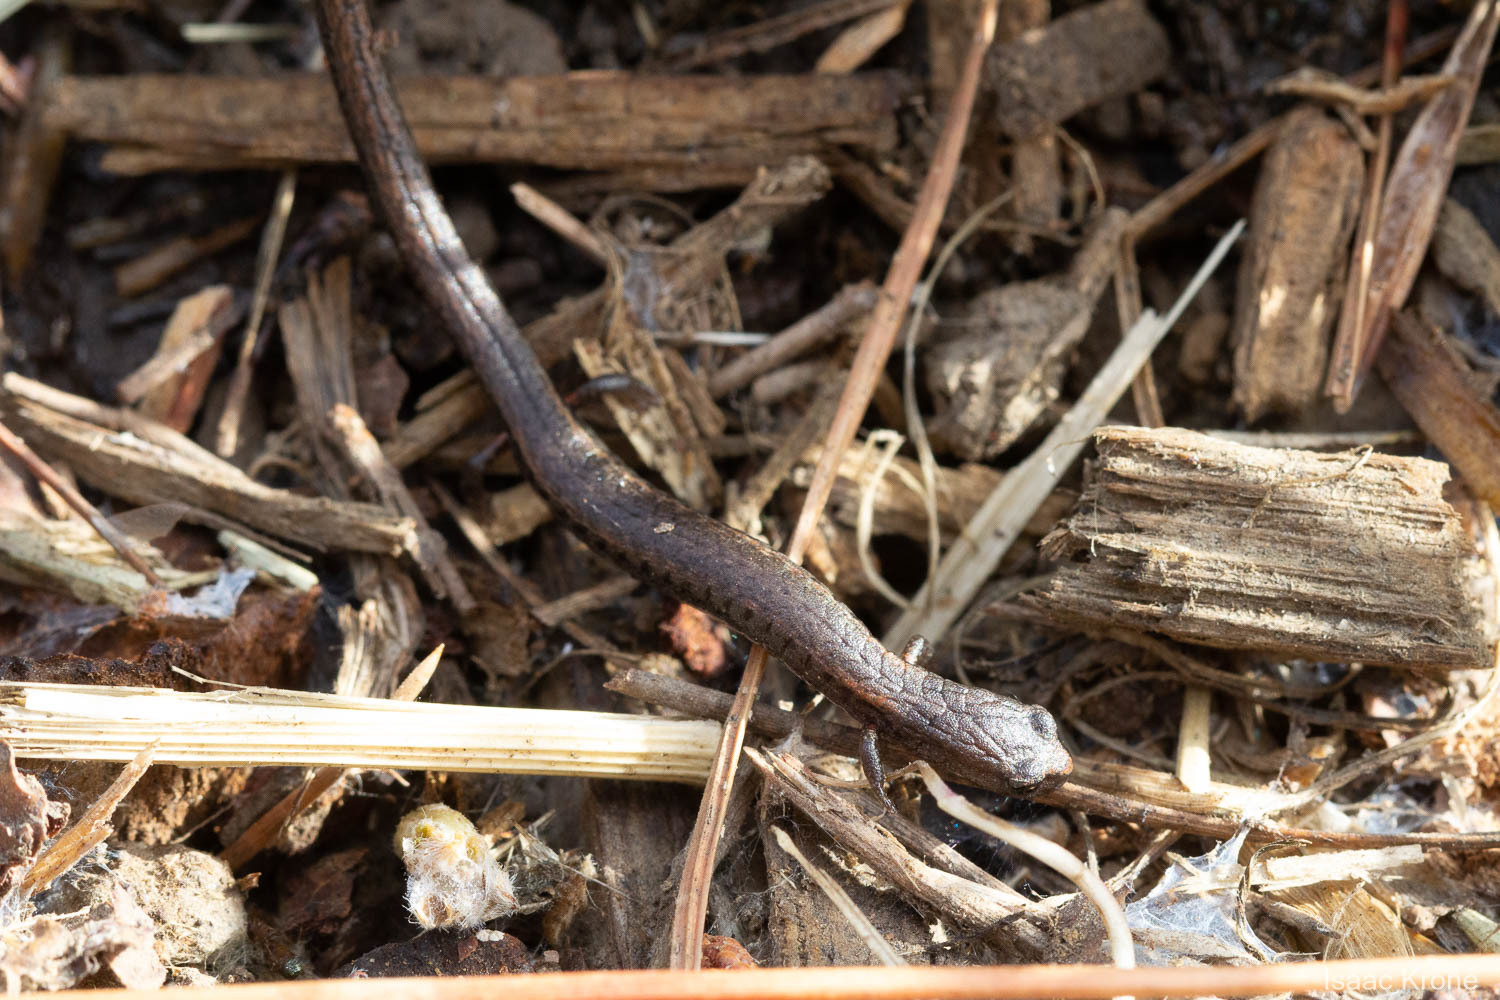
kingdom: Animalia
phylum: Chordata
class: Amphibia
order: Caudata
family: Plethodontidae
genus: Batrachoseps
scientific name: Batrachoseps attenuatus
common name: California slender salamander
